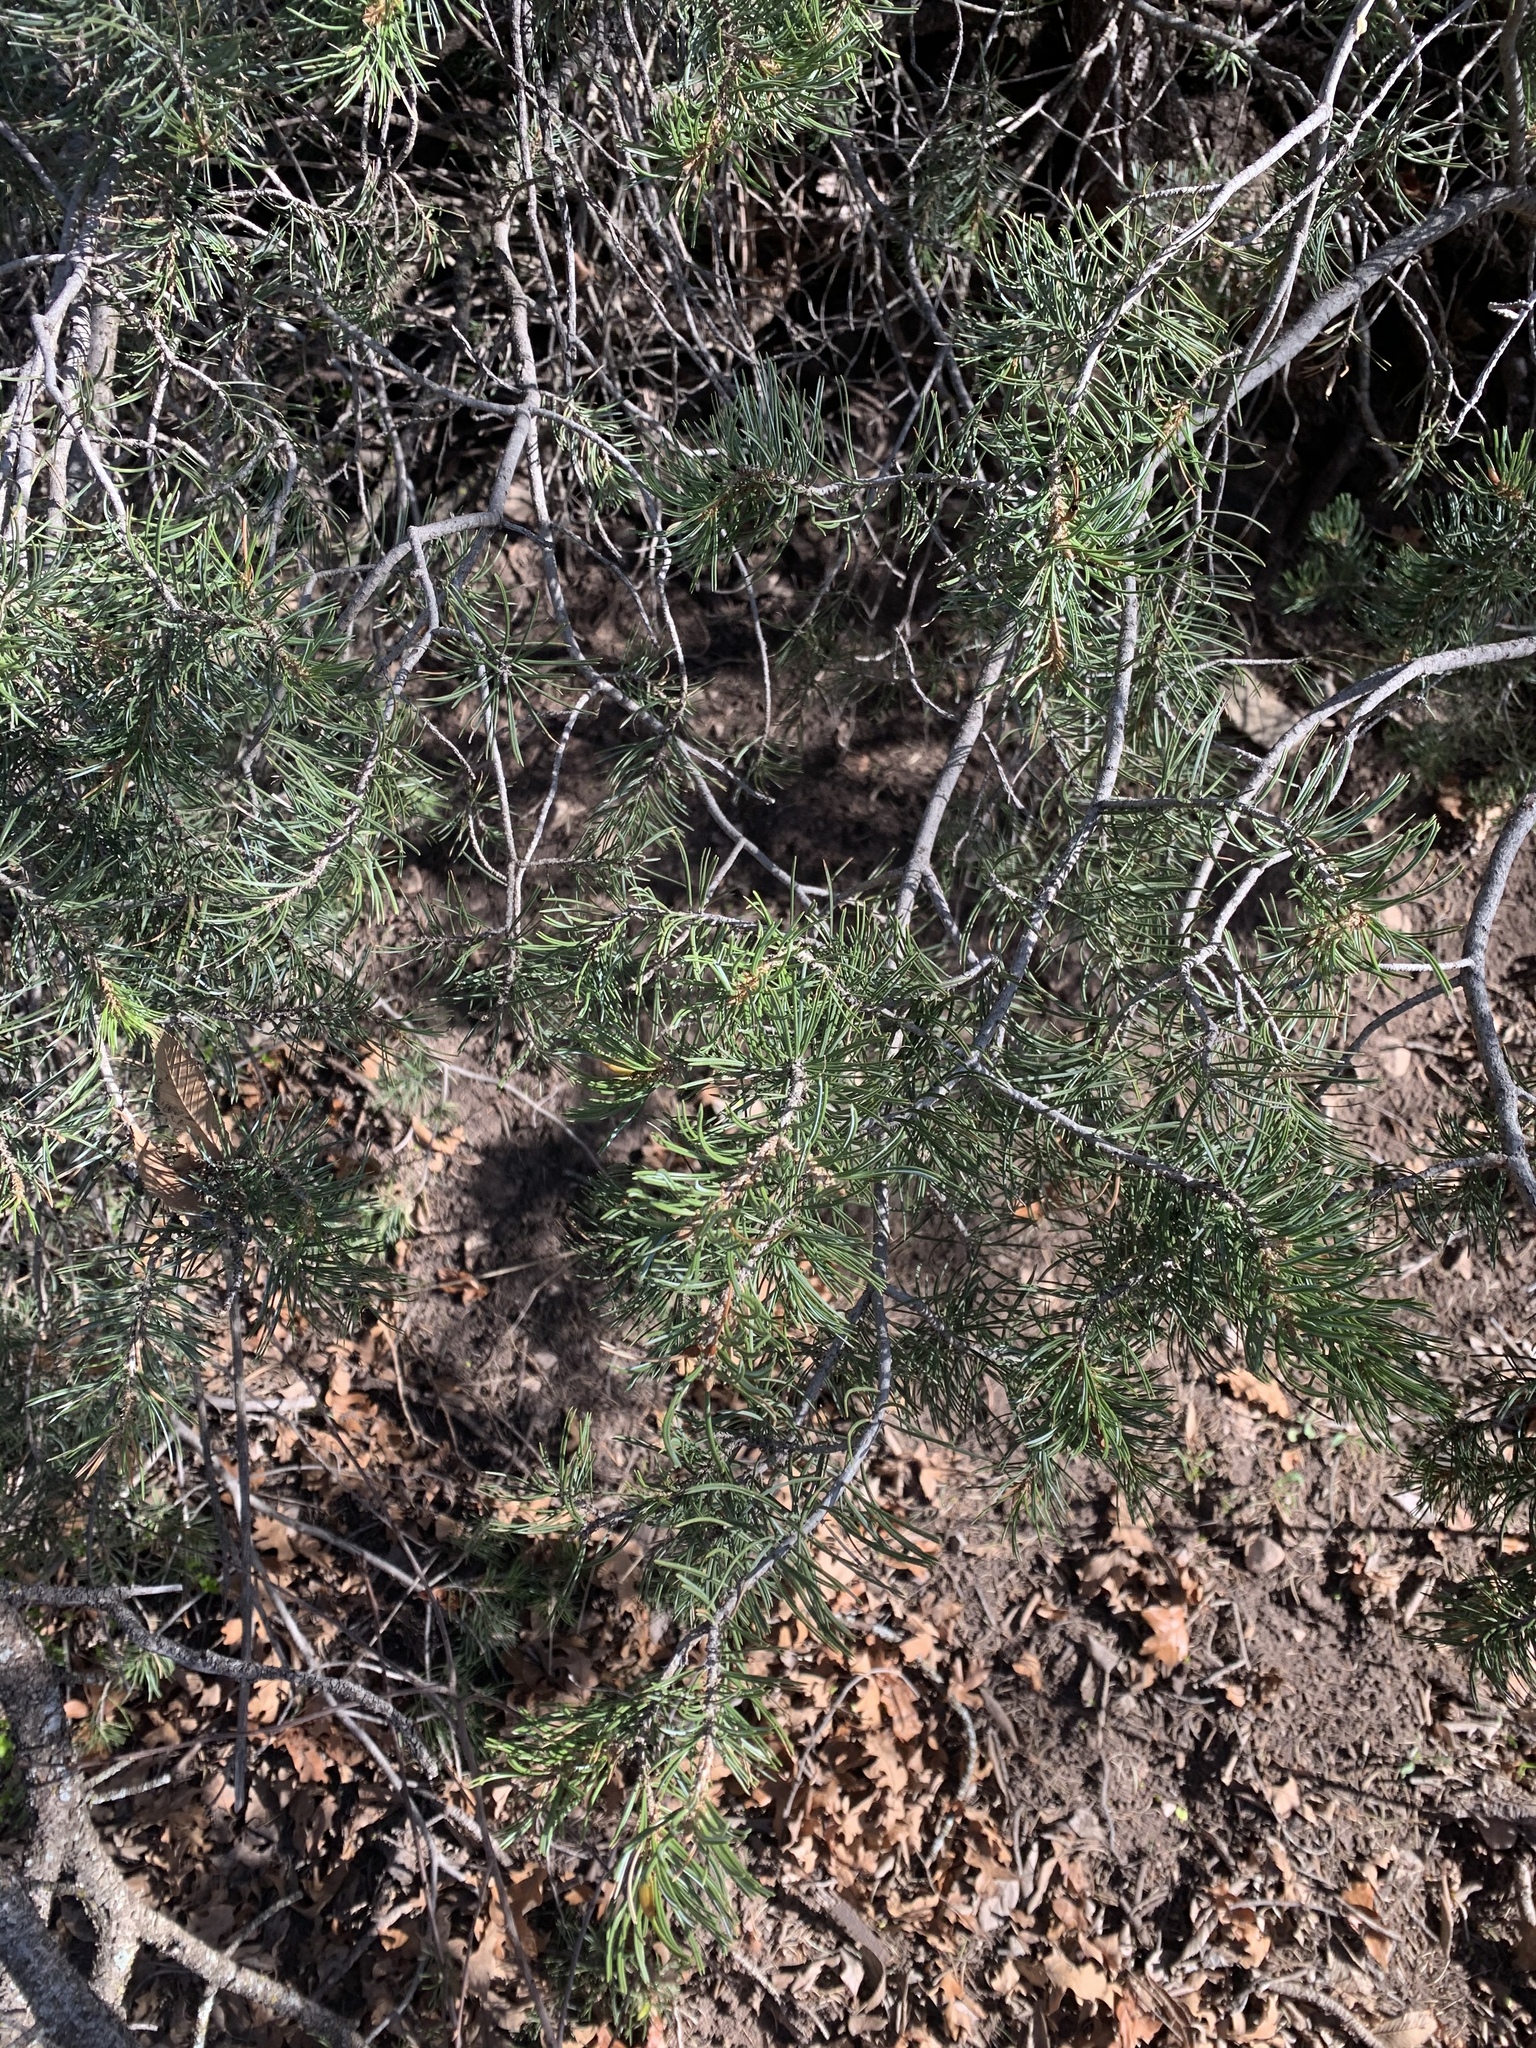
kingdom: Plantae
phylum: Tracheophyta
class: Pinopsida
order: Pinales
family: Pinaceae
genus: Pinus
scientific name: Pinus edulis
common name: Colorado pinyon
